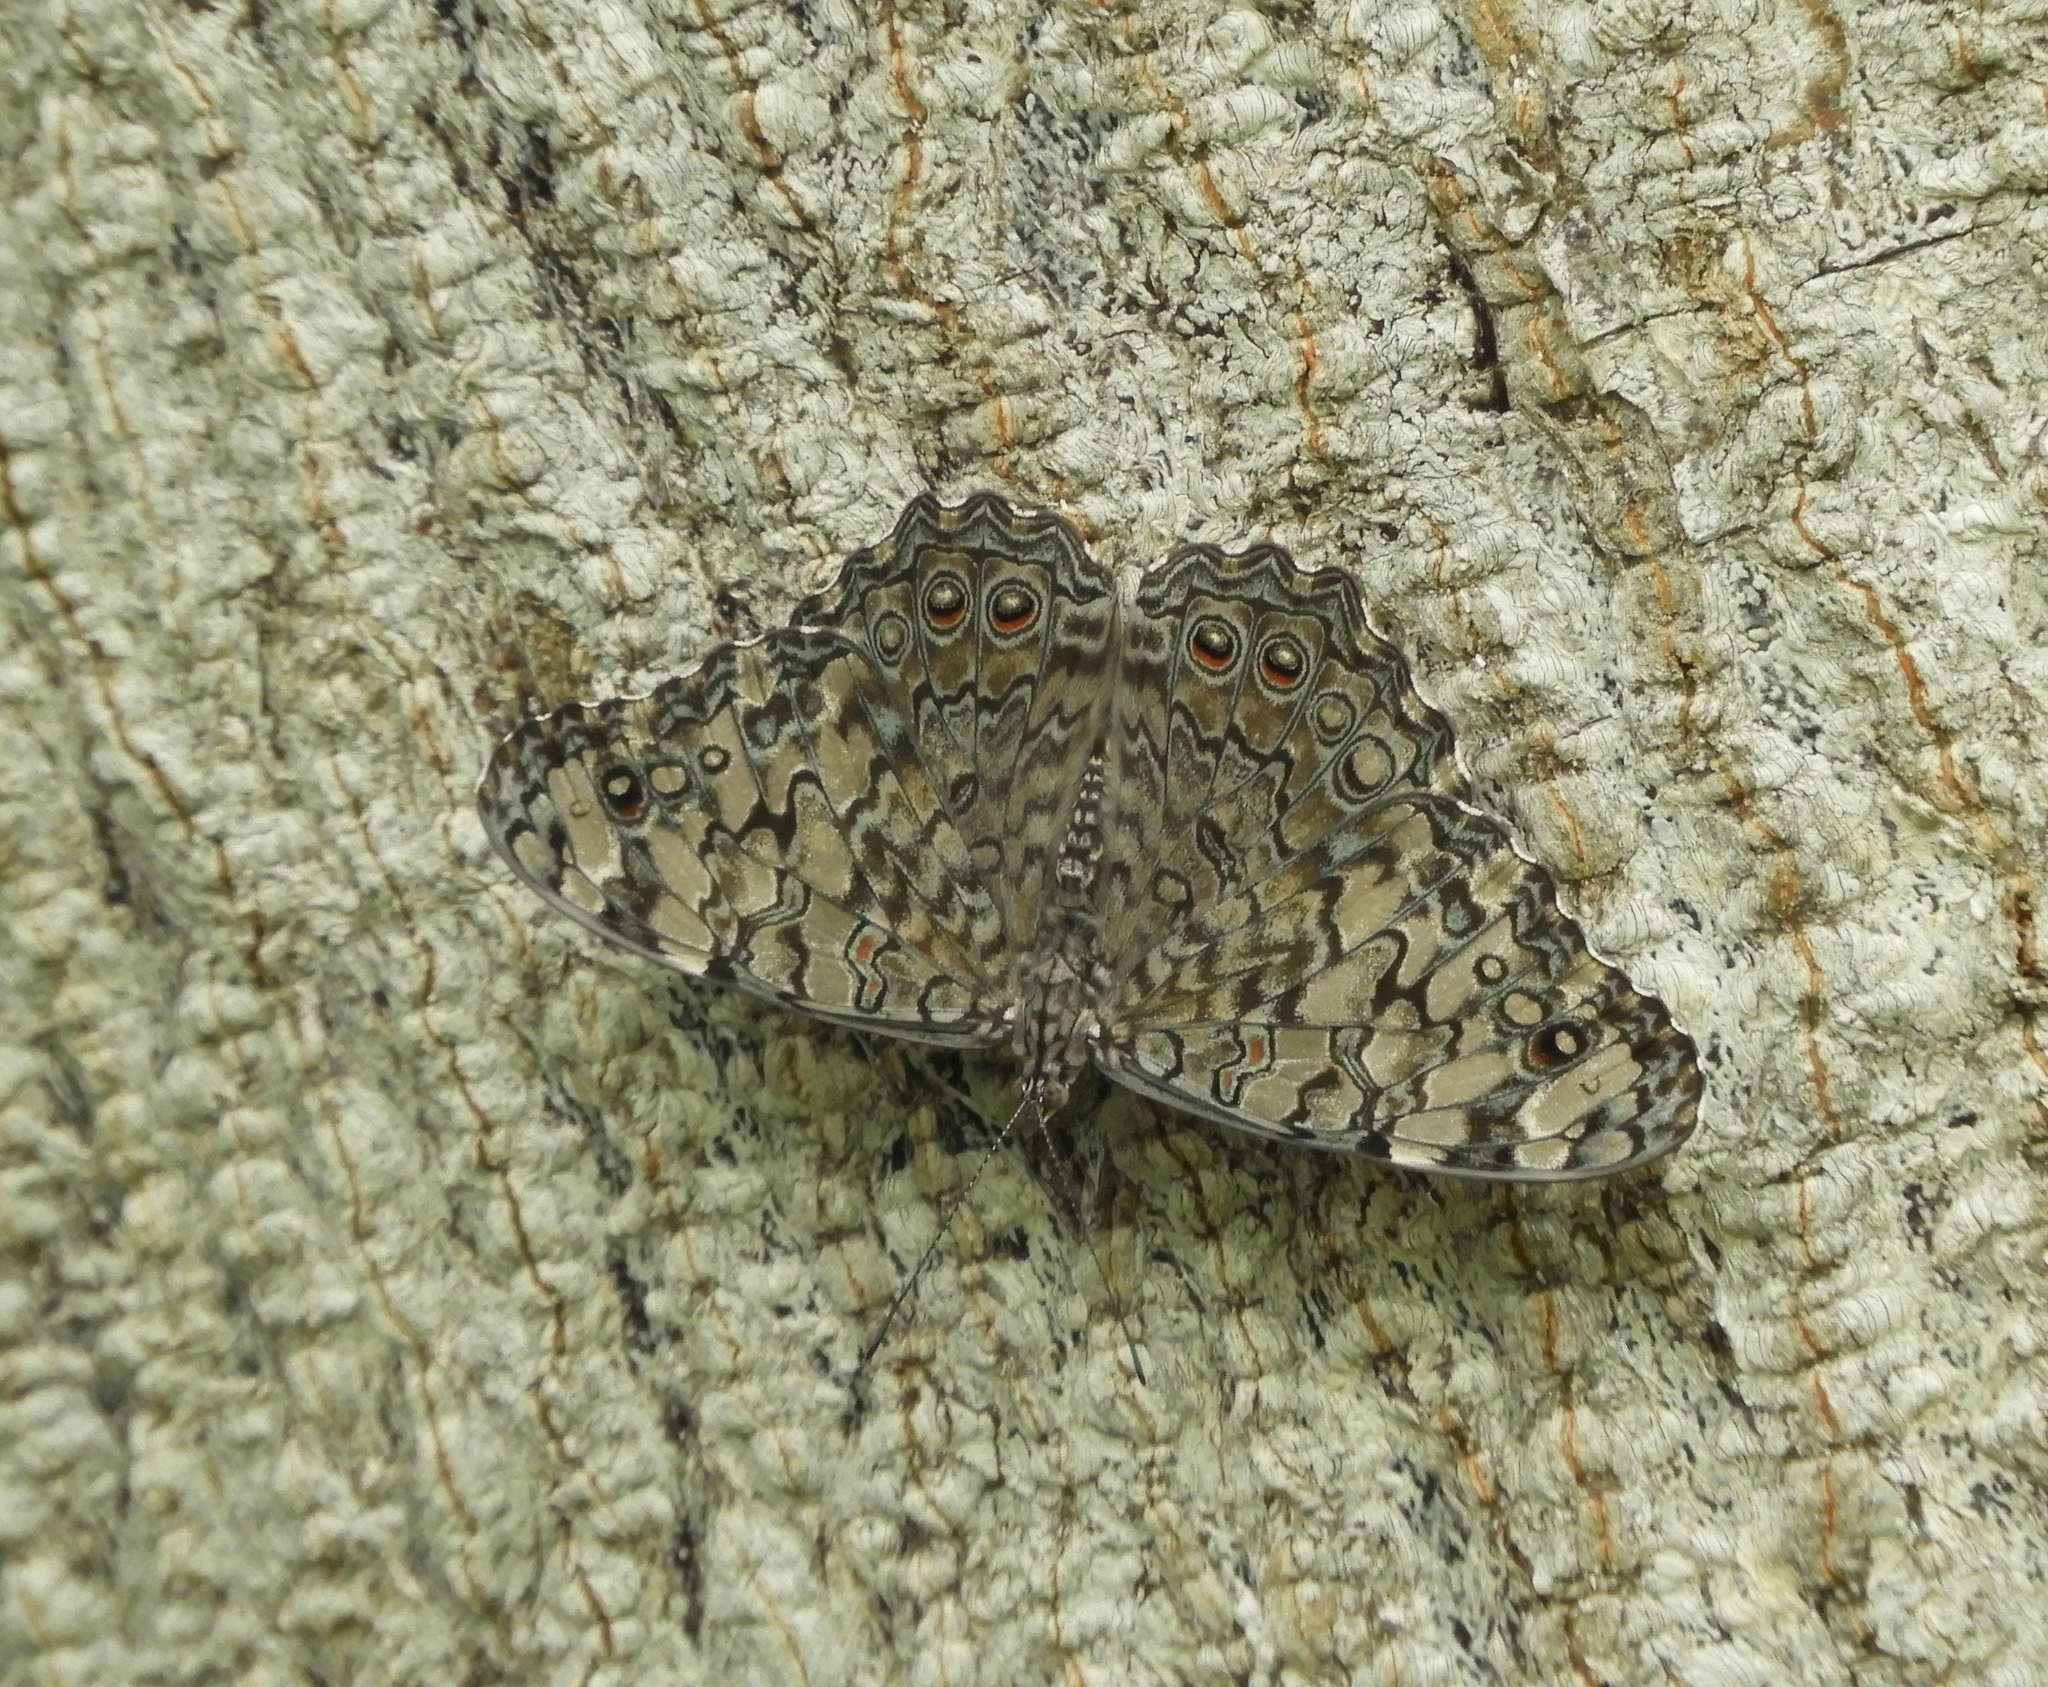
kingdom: Animalia
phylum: Arthropoda
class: Insecta
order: Lepidoptera
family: Nymphalidae
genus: Hamadryas
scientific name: Hamadryas februa
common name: Gray cracker
